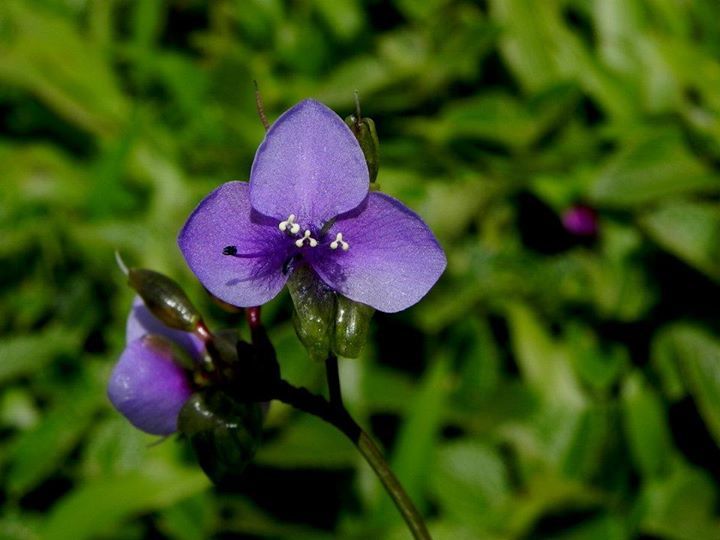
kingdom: Plantae
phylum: Tracheophyta
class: Liliopsida
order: Commelinales
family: Commelinaceae
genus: Murdannia
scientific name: Murdannia simplex
